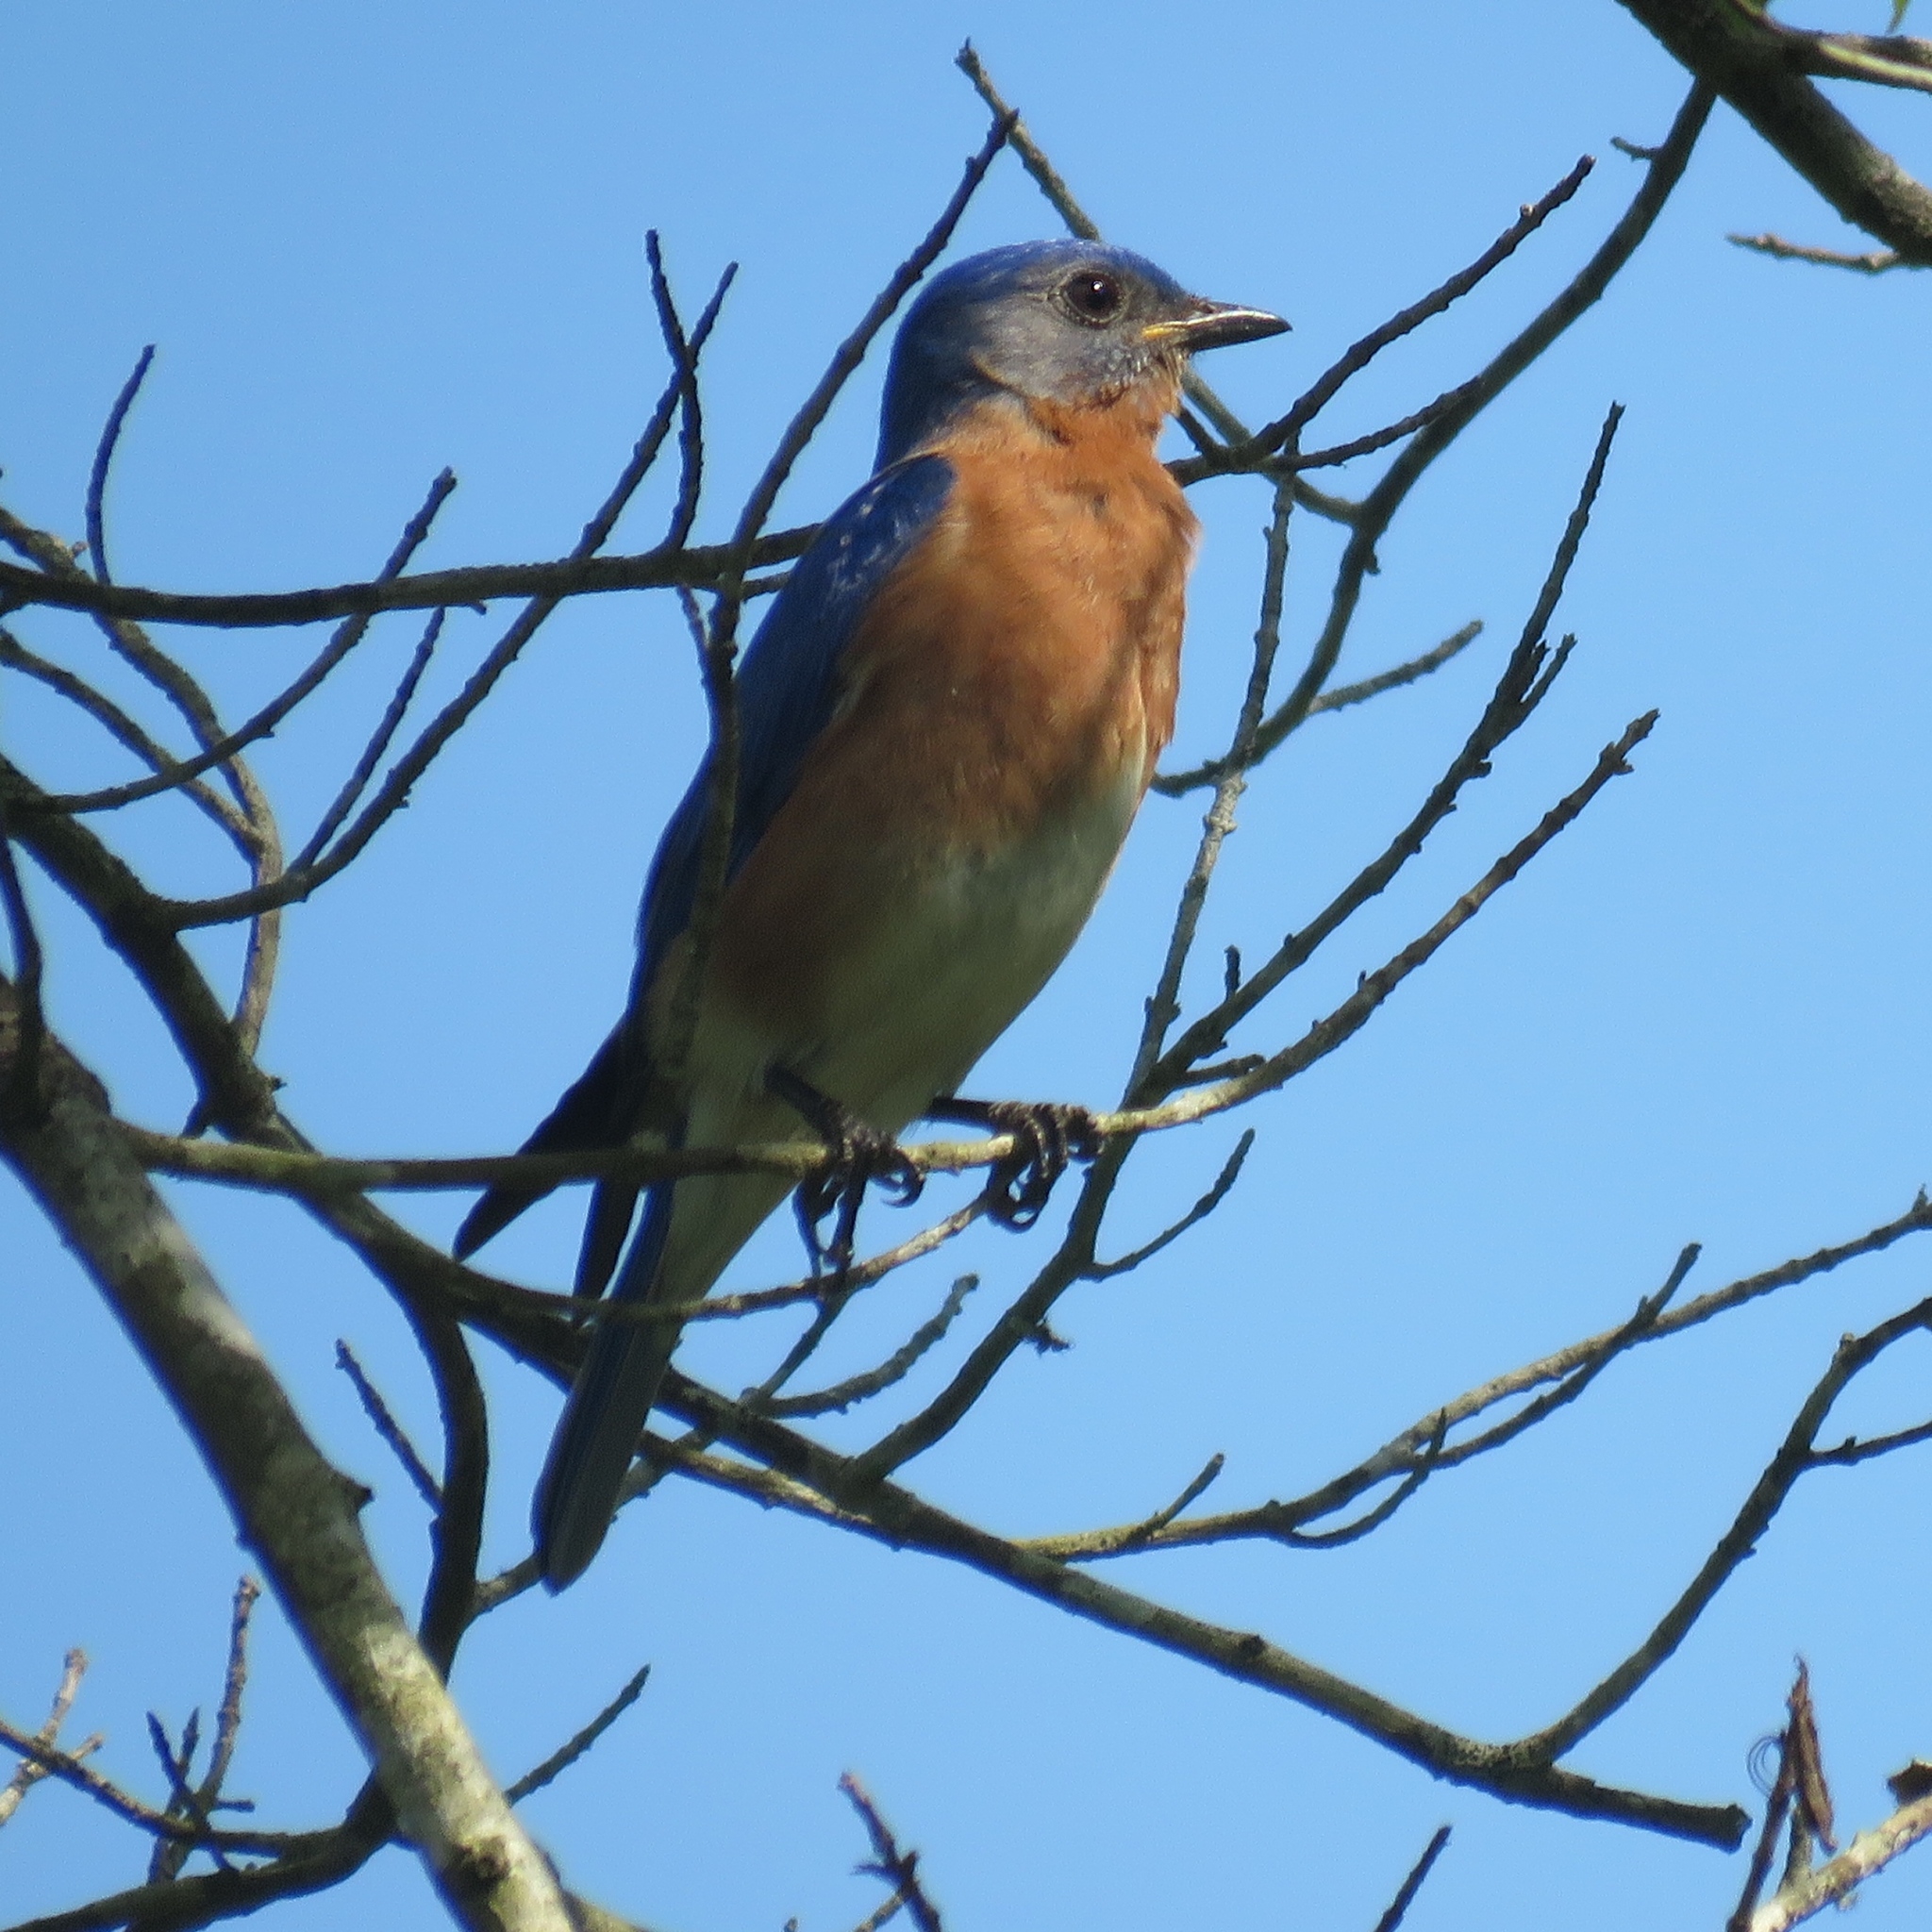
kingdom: Animalia
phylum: Chordata
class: Aves
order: Passeriformes
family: Turdidae
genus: Sialia
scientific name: Sialia sialis
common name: Eastern bluebird
